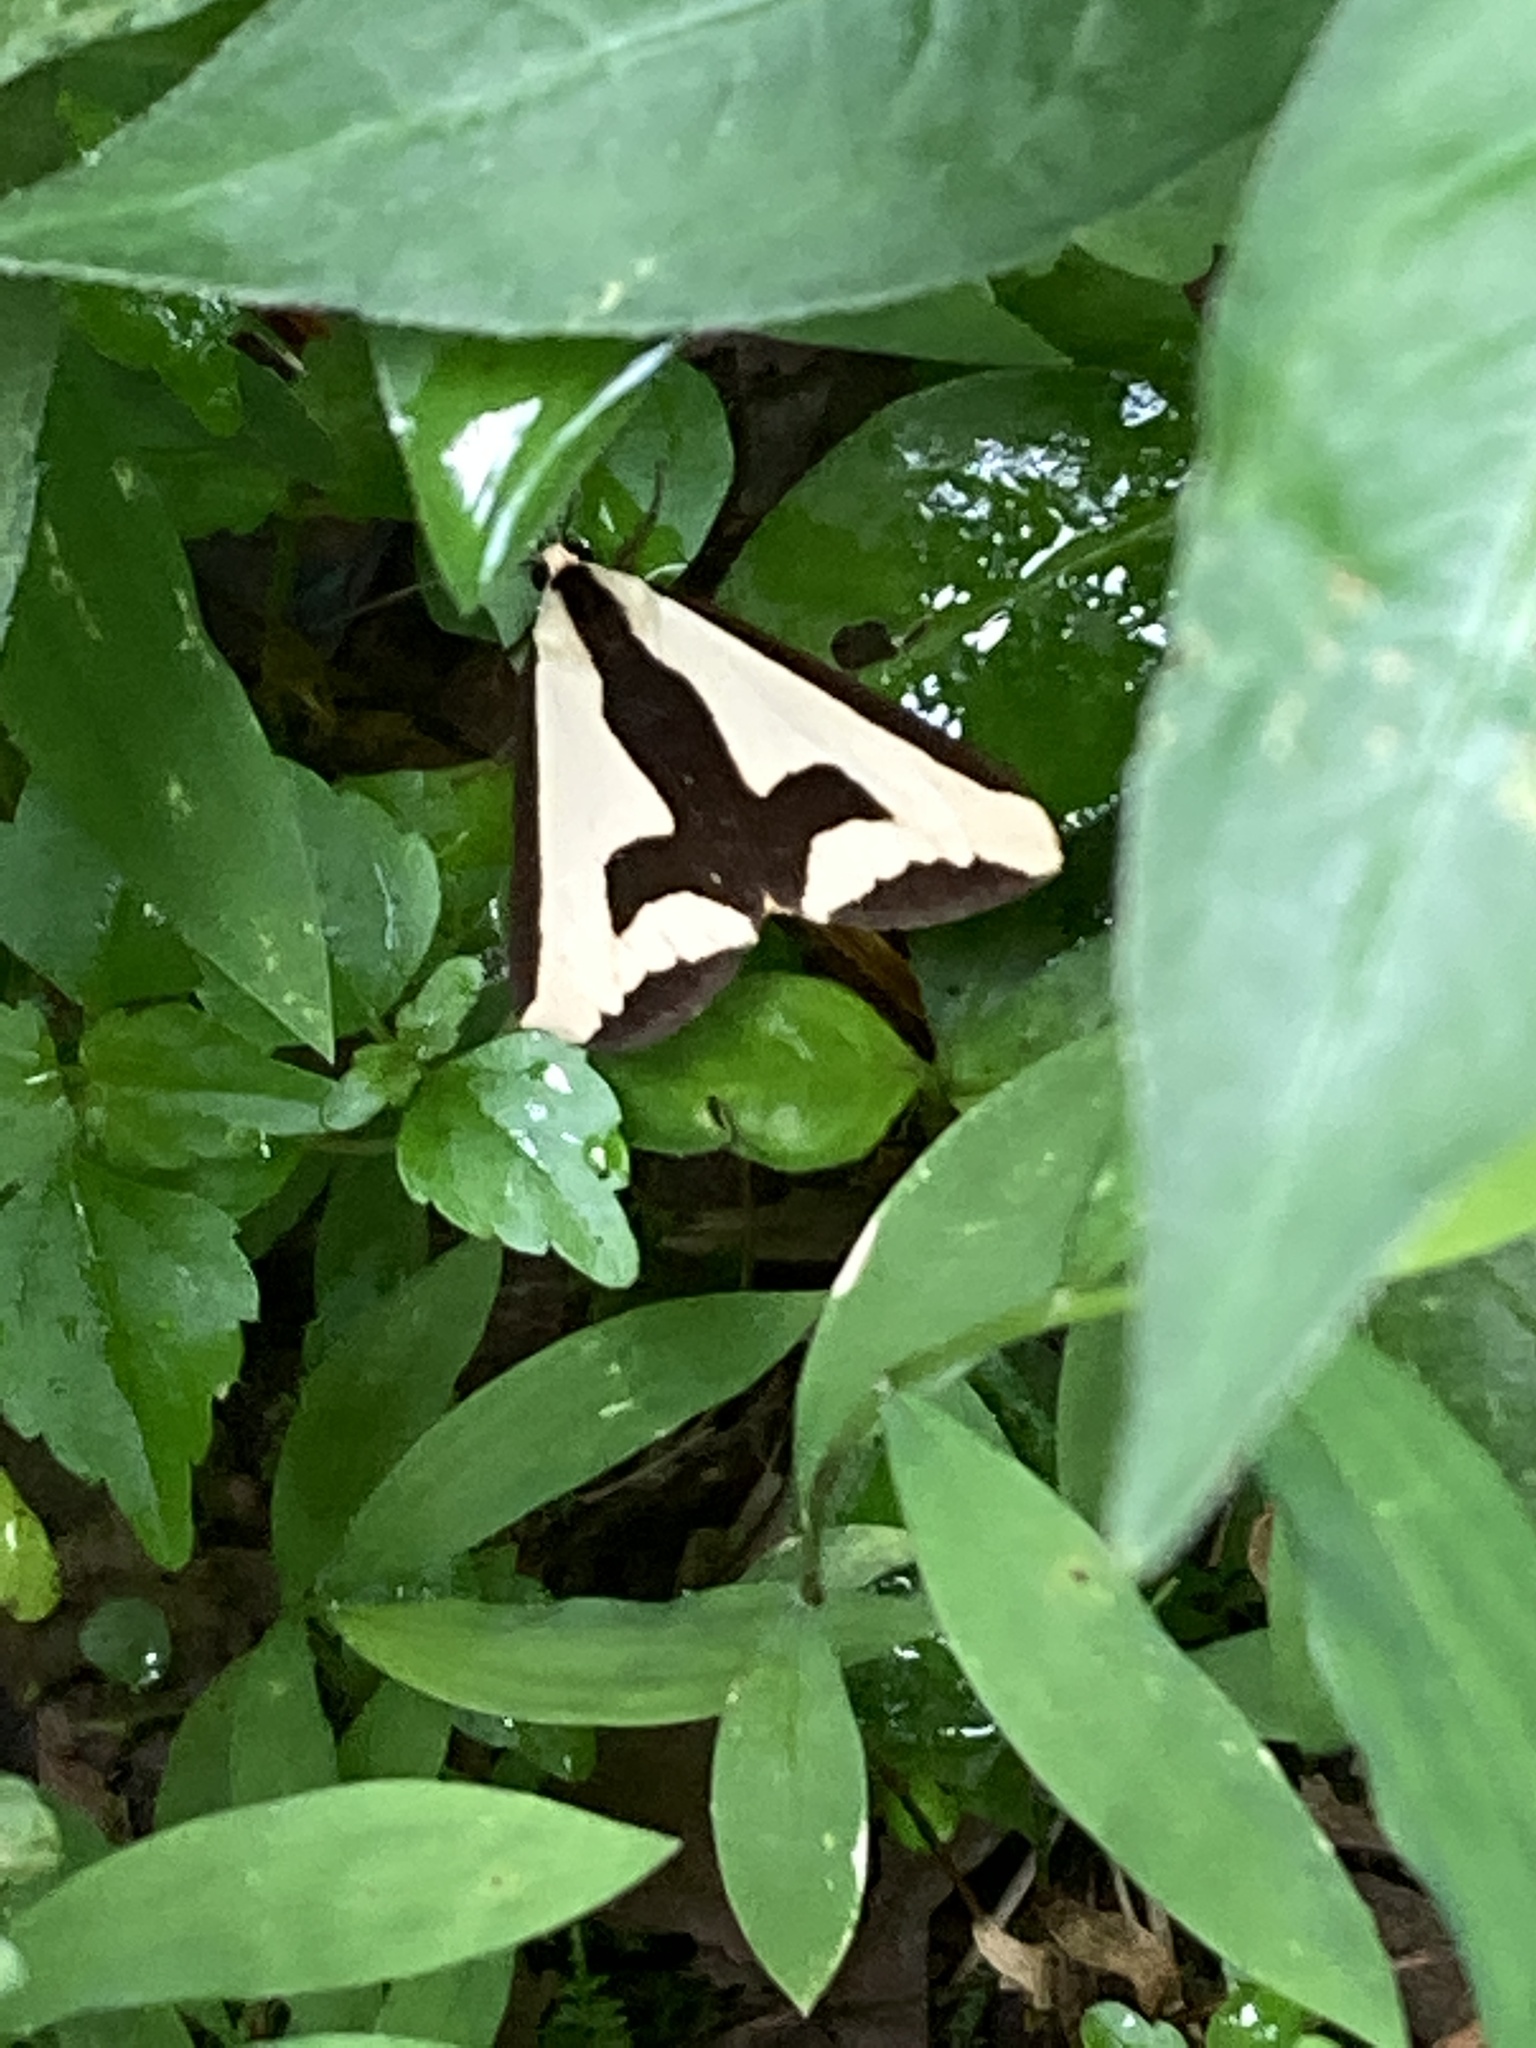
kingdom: Animalia
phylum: Arthropoda
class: Insecta
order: Lepidoptera
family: Erebidae
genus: Haploa
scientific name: Haploa clymene
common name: Clymene moth
